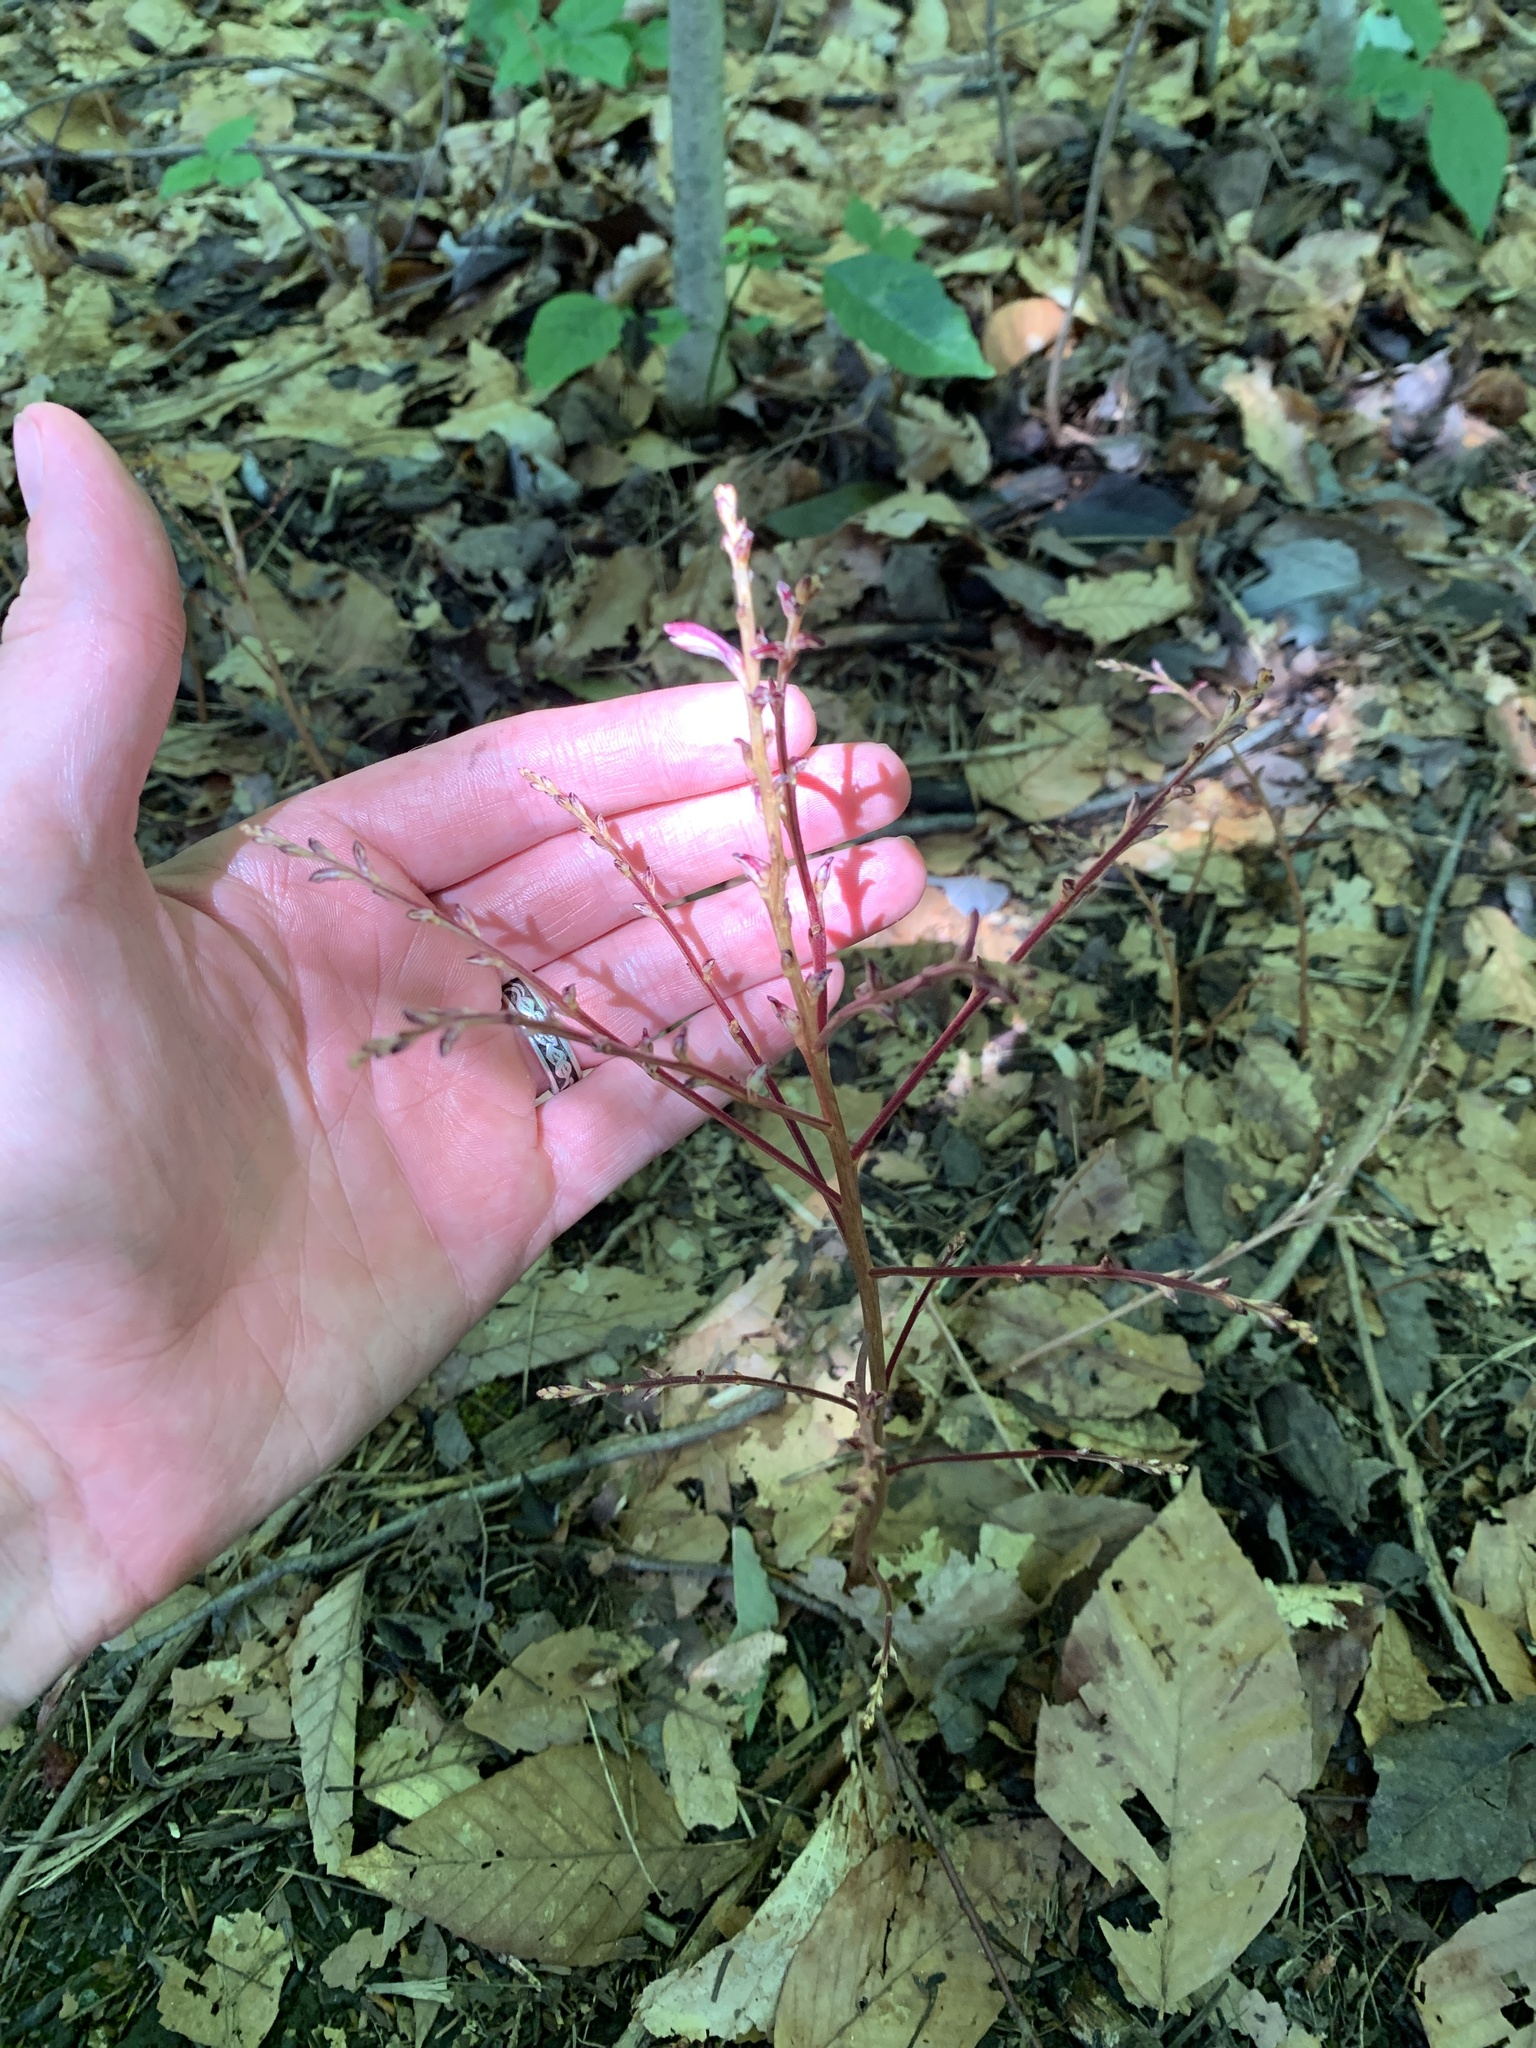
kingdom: Plantae
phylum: Tracheophyta
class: Magnoliopsida
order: Lamiales
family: Orobanchaceae
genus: Epifagus
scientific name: Epifagus virginiana
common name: Beechdrops
